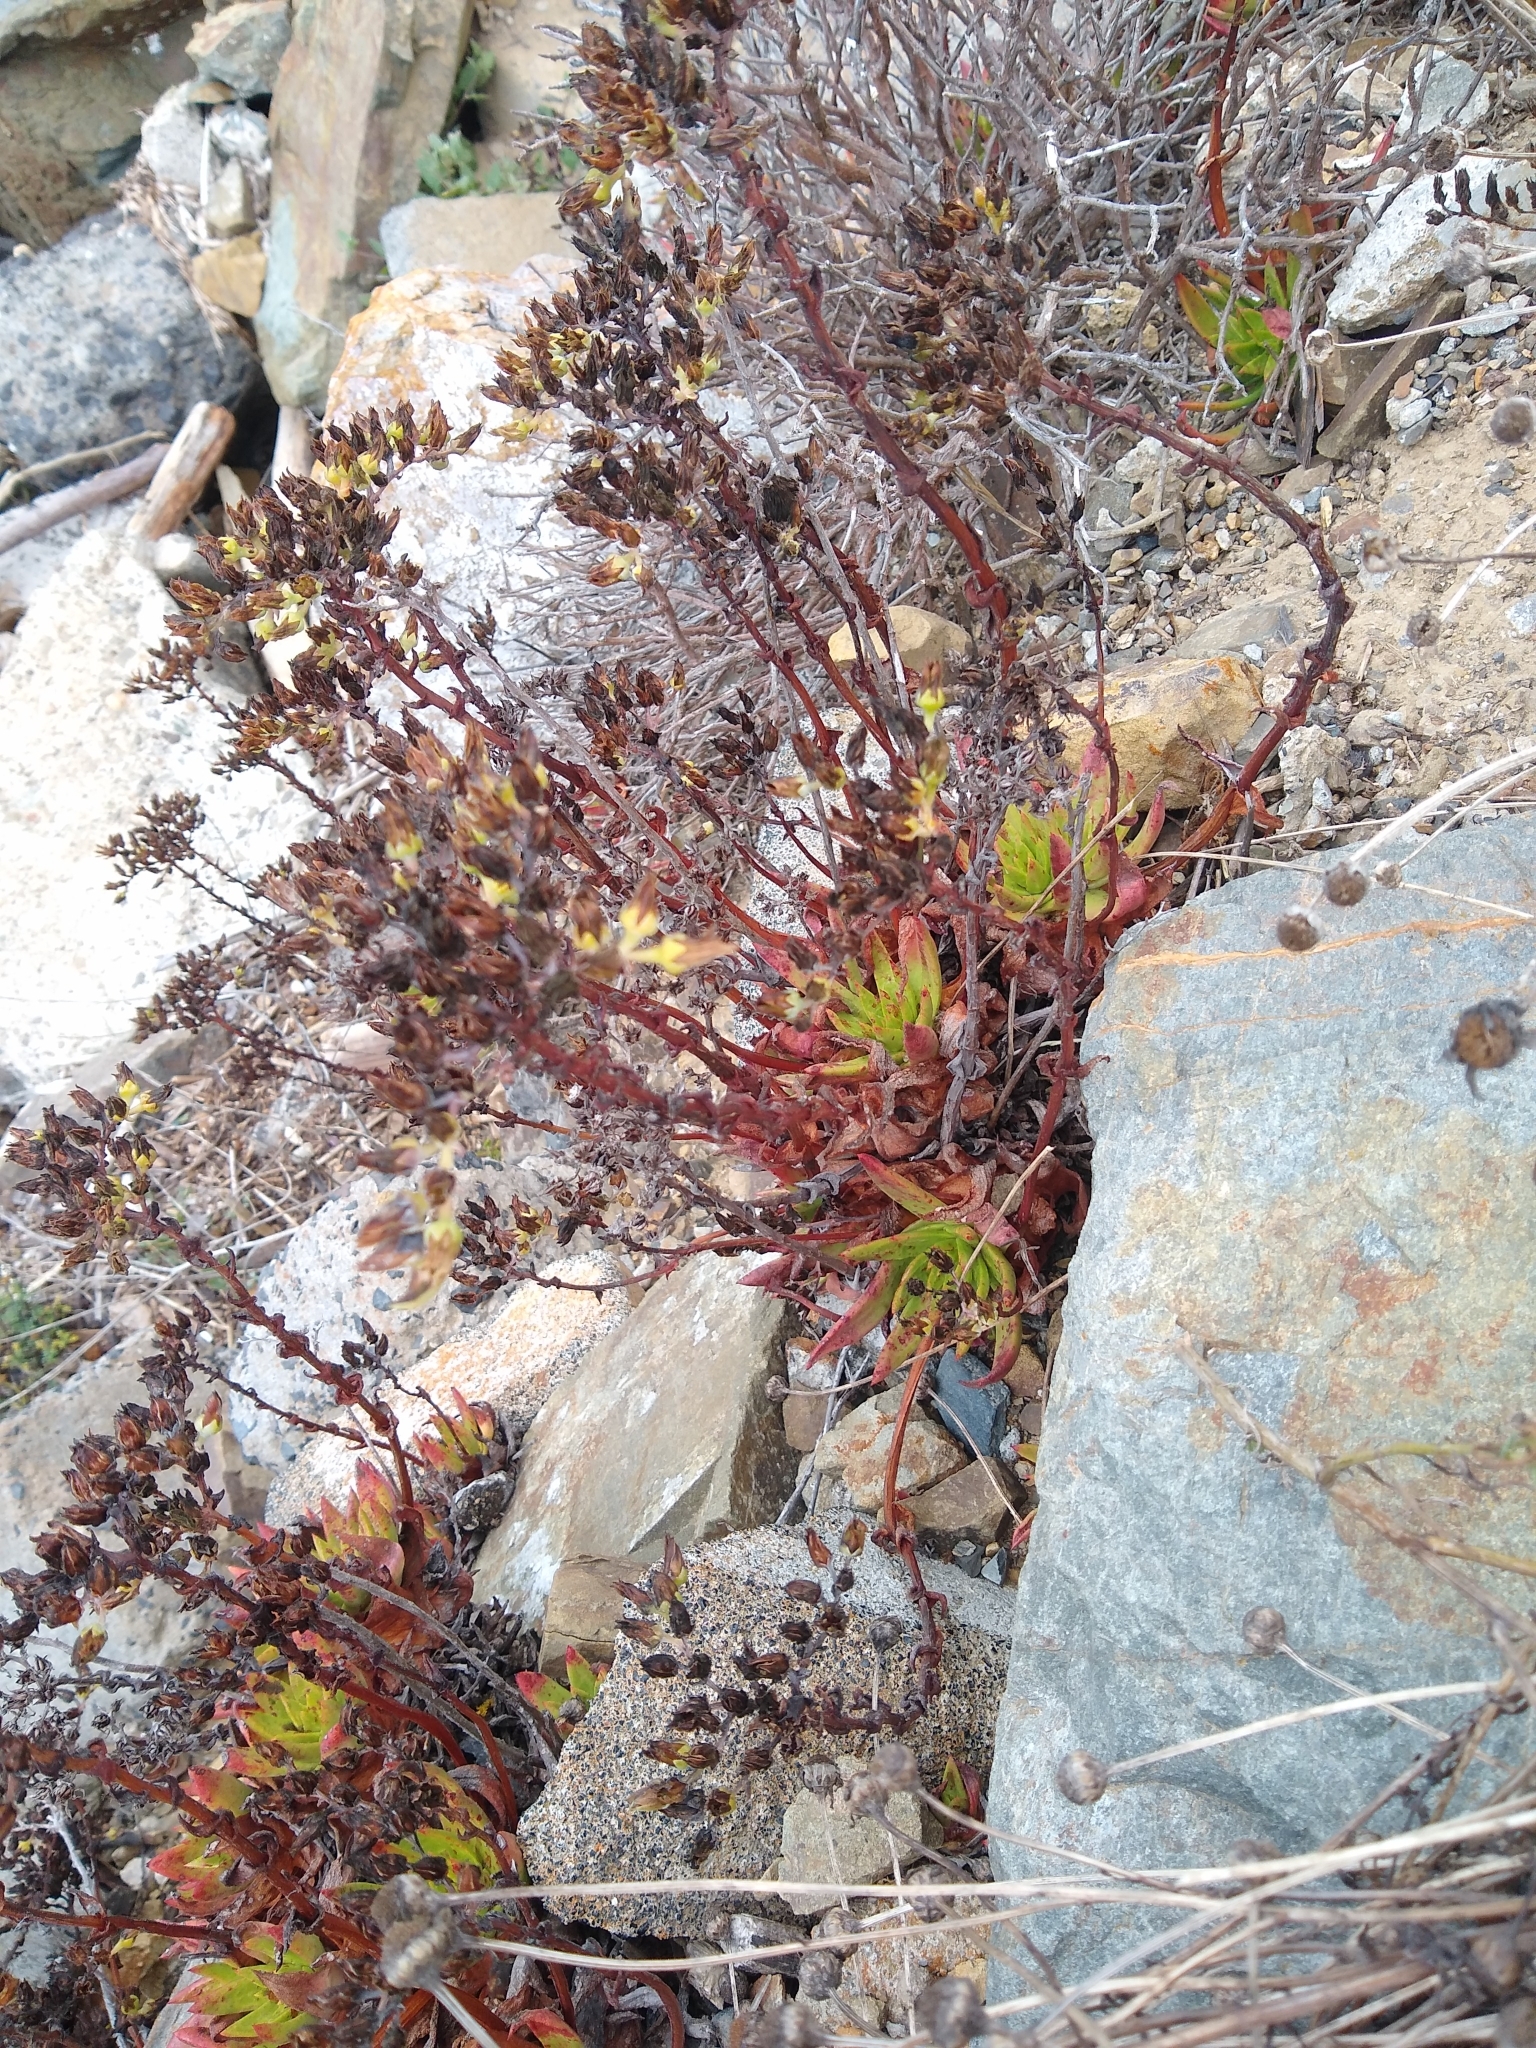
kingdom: Plantae
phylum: Tracheophyta
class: Magnoliopsida
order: Saxifragales
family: Crassulaceae
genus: Dudleya
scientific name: Dudleya farinosa
